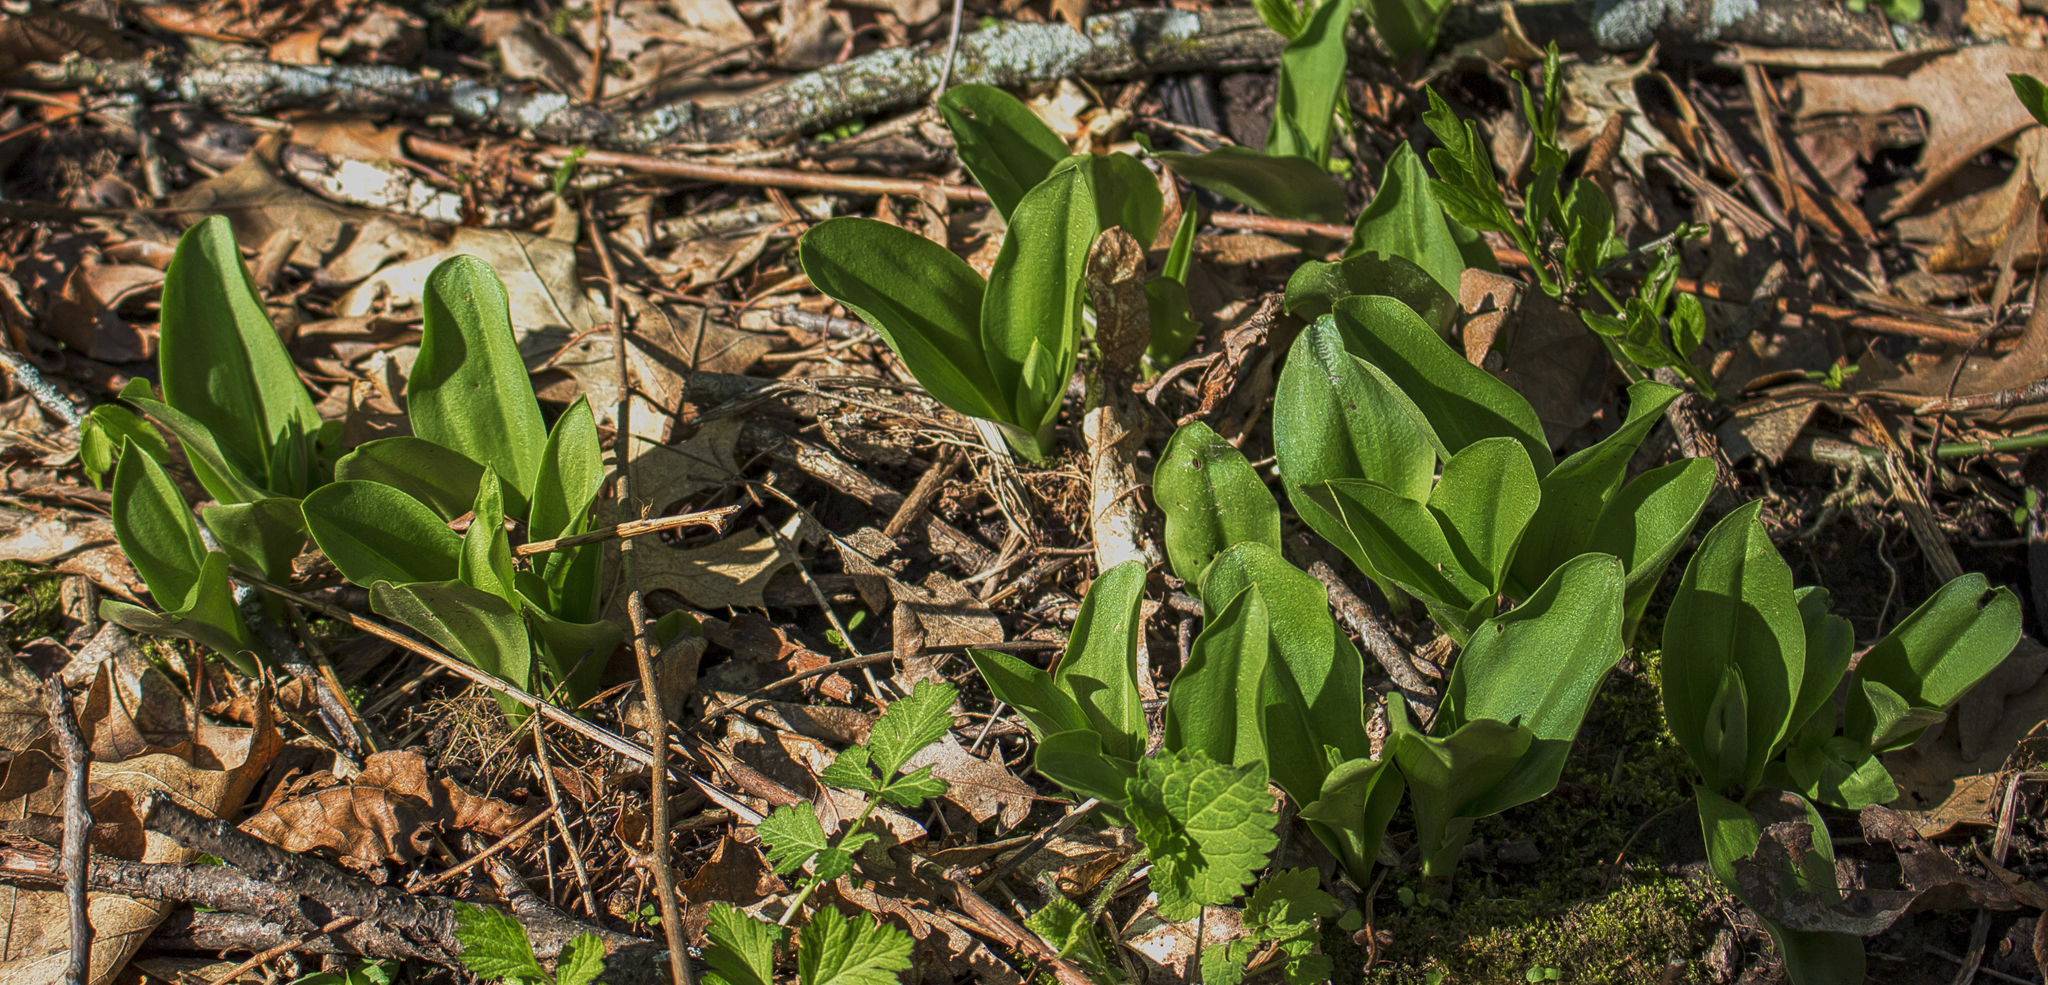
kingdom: Plantae
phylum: Tracheophyta
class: Liliopsida
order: Asparagales
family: Orchidaceae
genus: Galearis
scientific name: Galearis spectabilis
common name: Purple-hooded orchis
